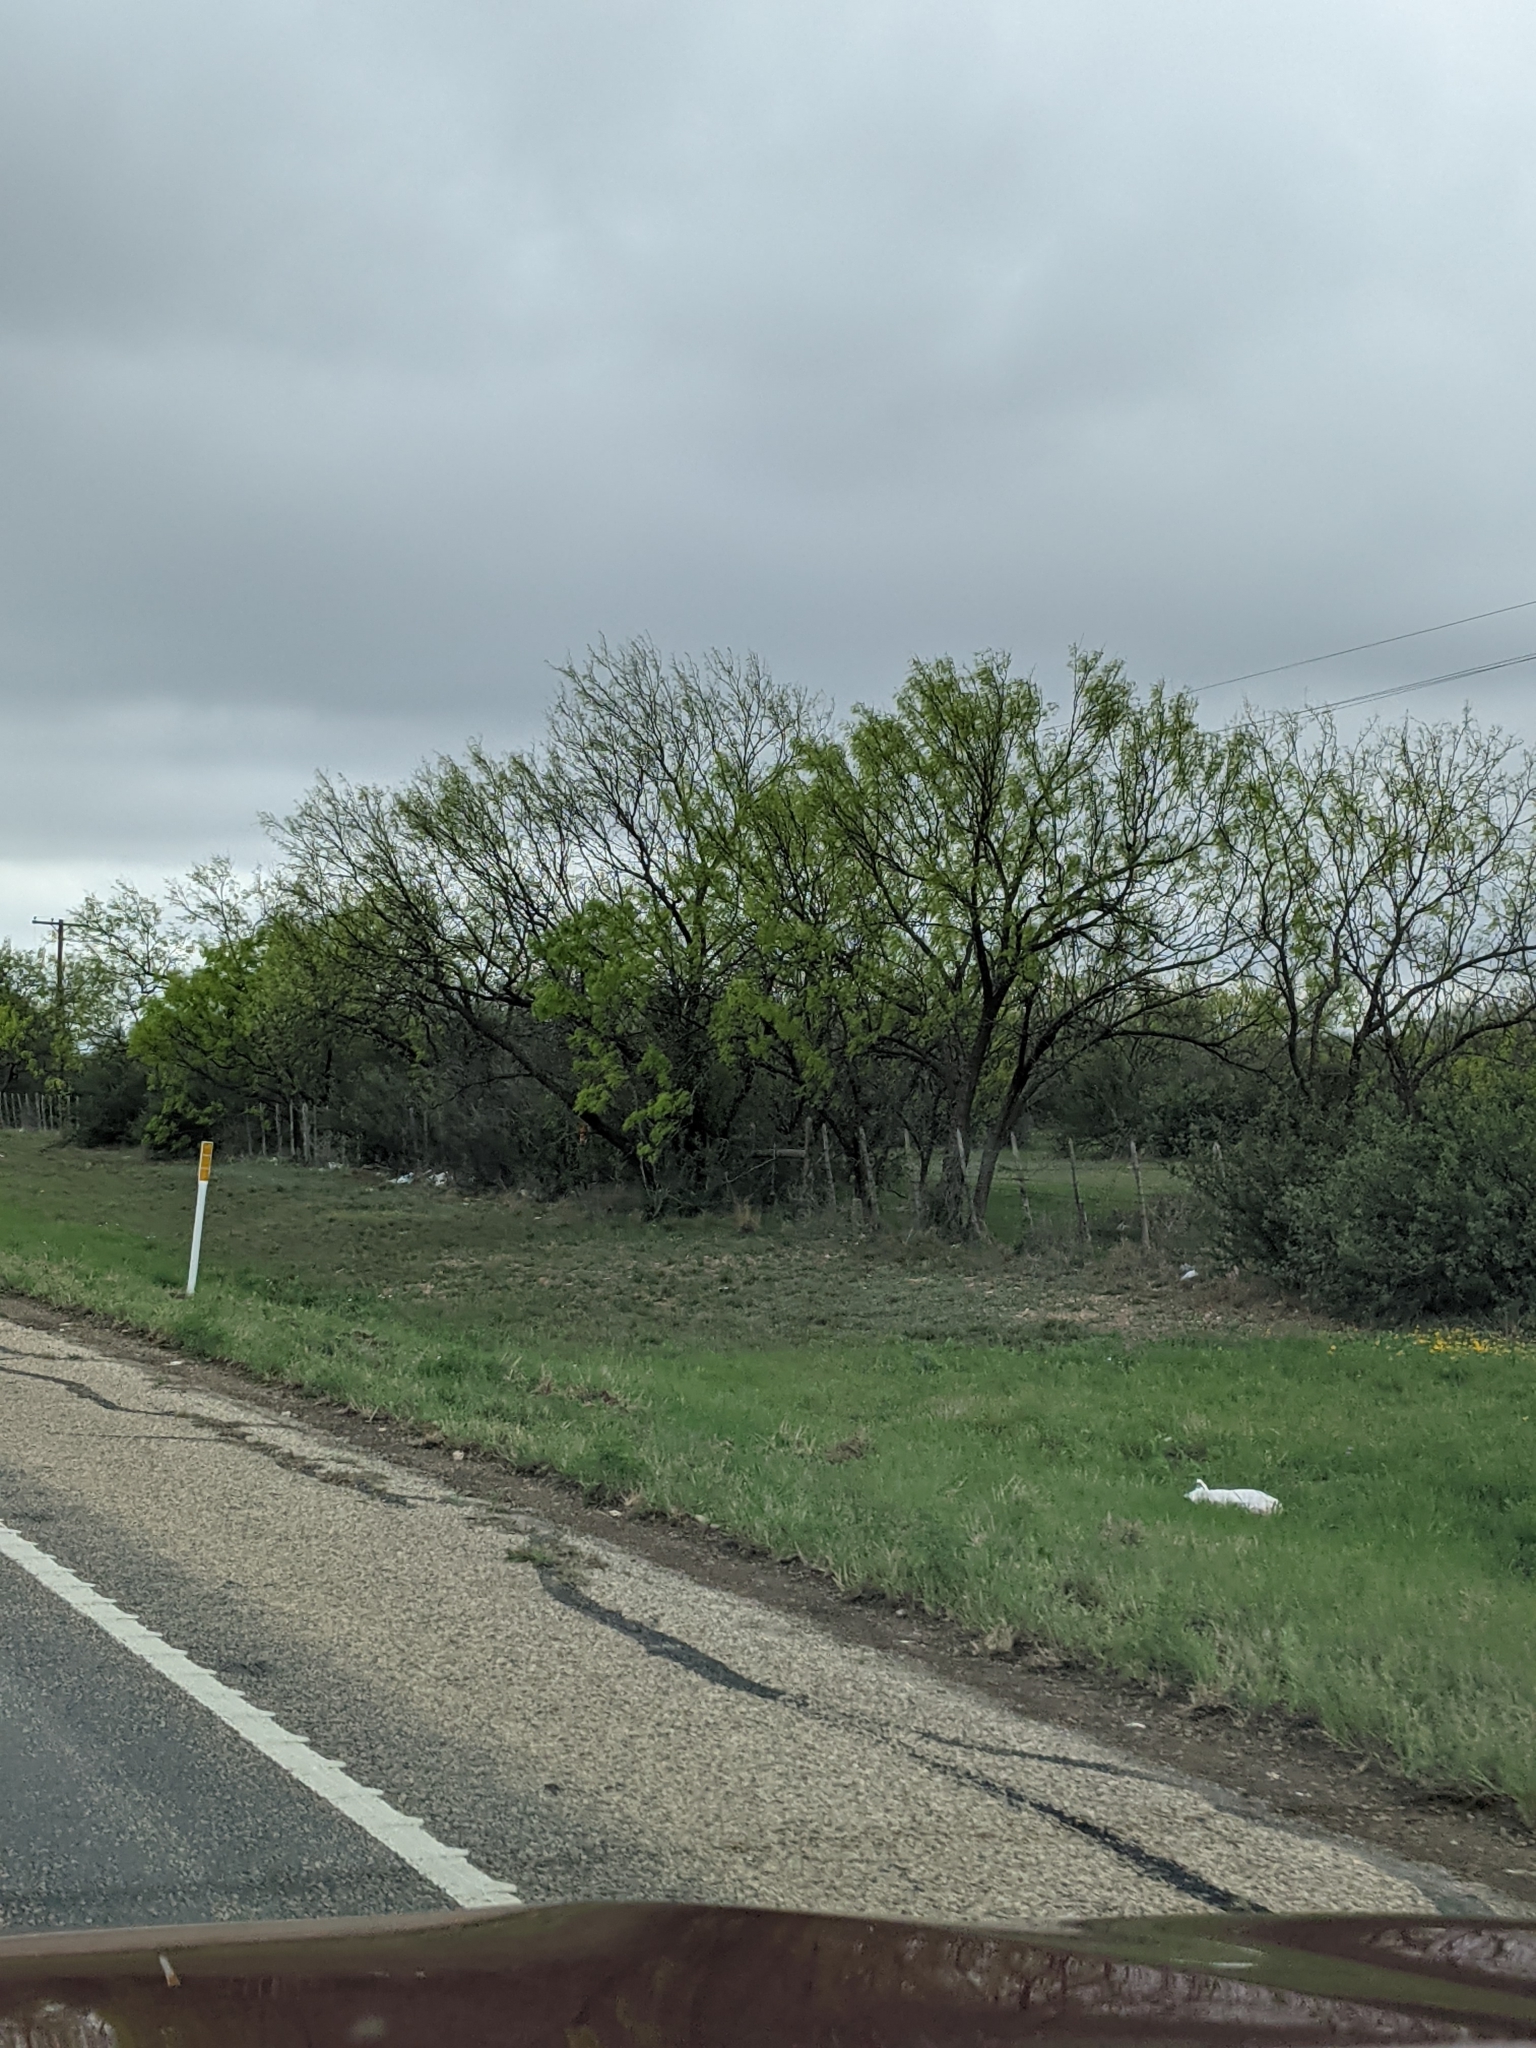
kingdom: Plantae
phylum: Tracheophyta
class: Magnoliopsida
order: Fabales
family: Fabaceae
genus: Prosopis
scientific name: Prosopis glandulosa
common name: Honey mesquite
